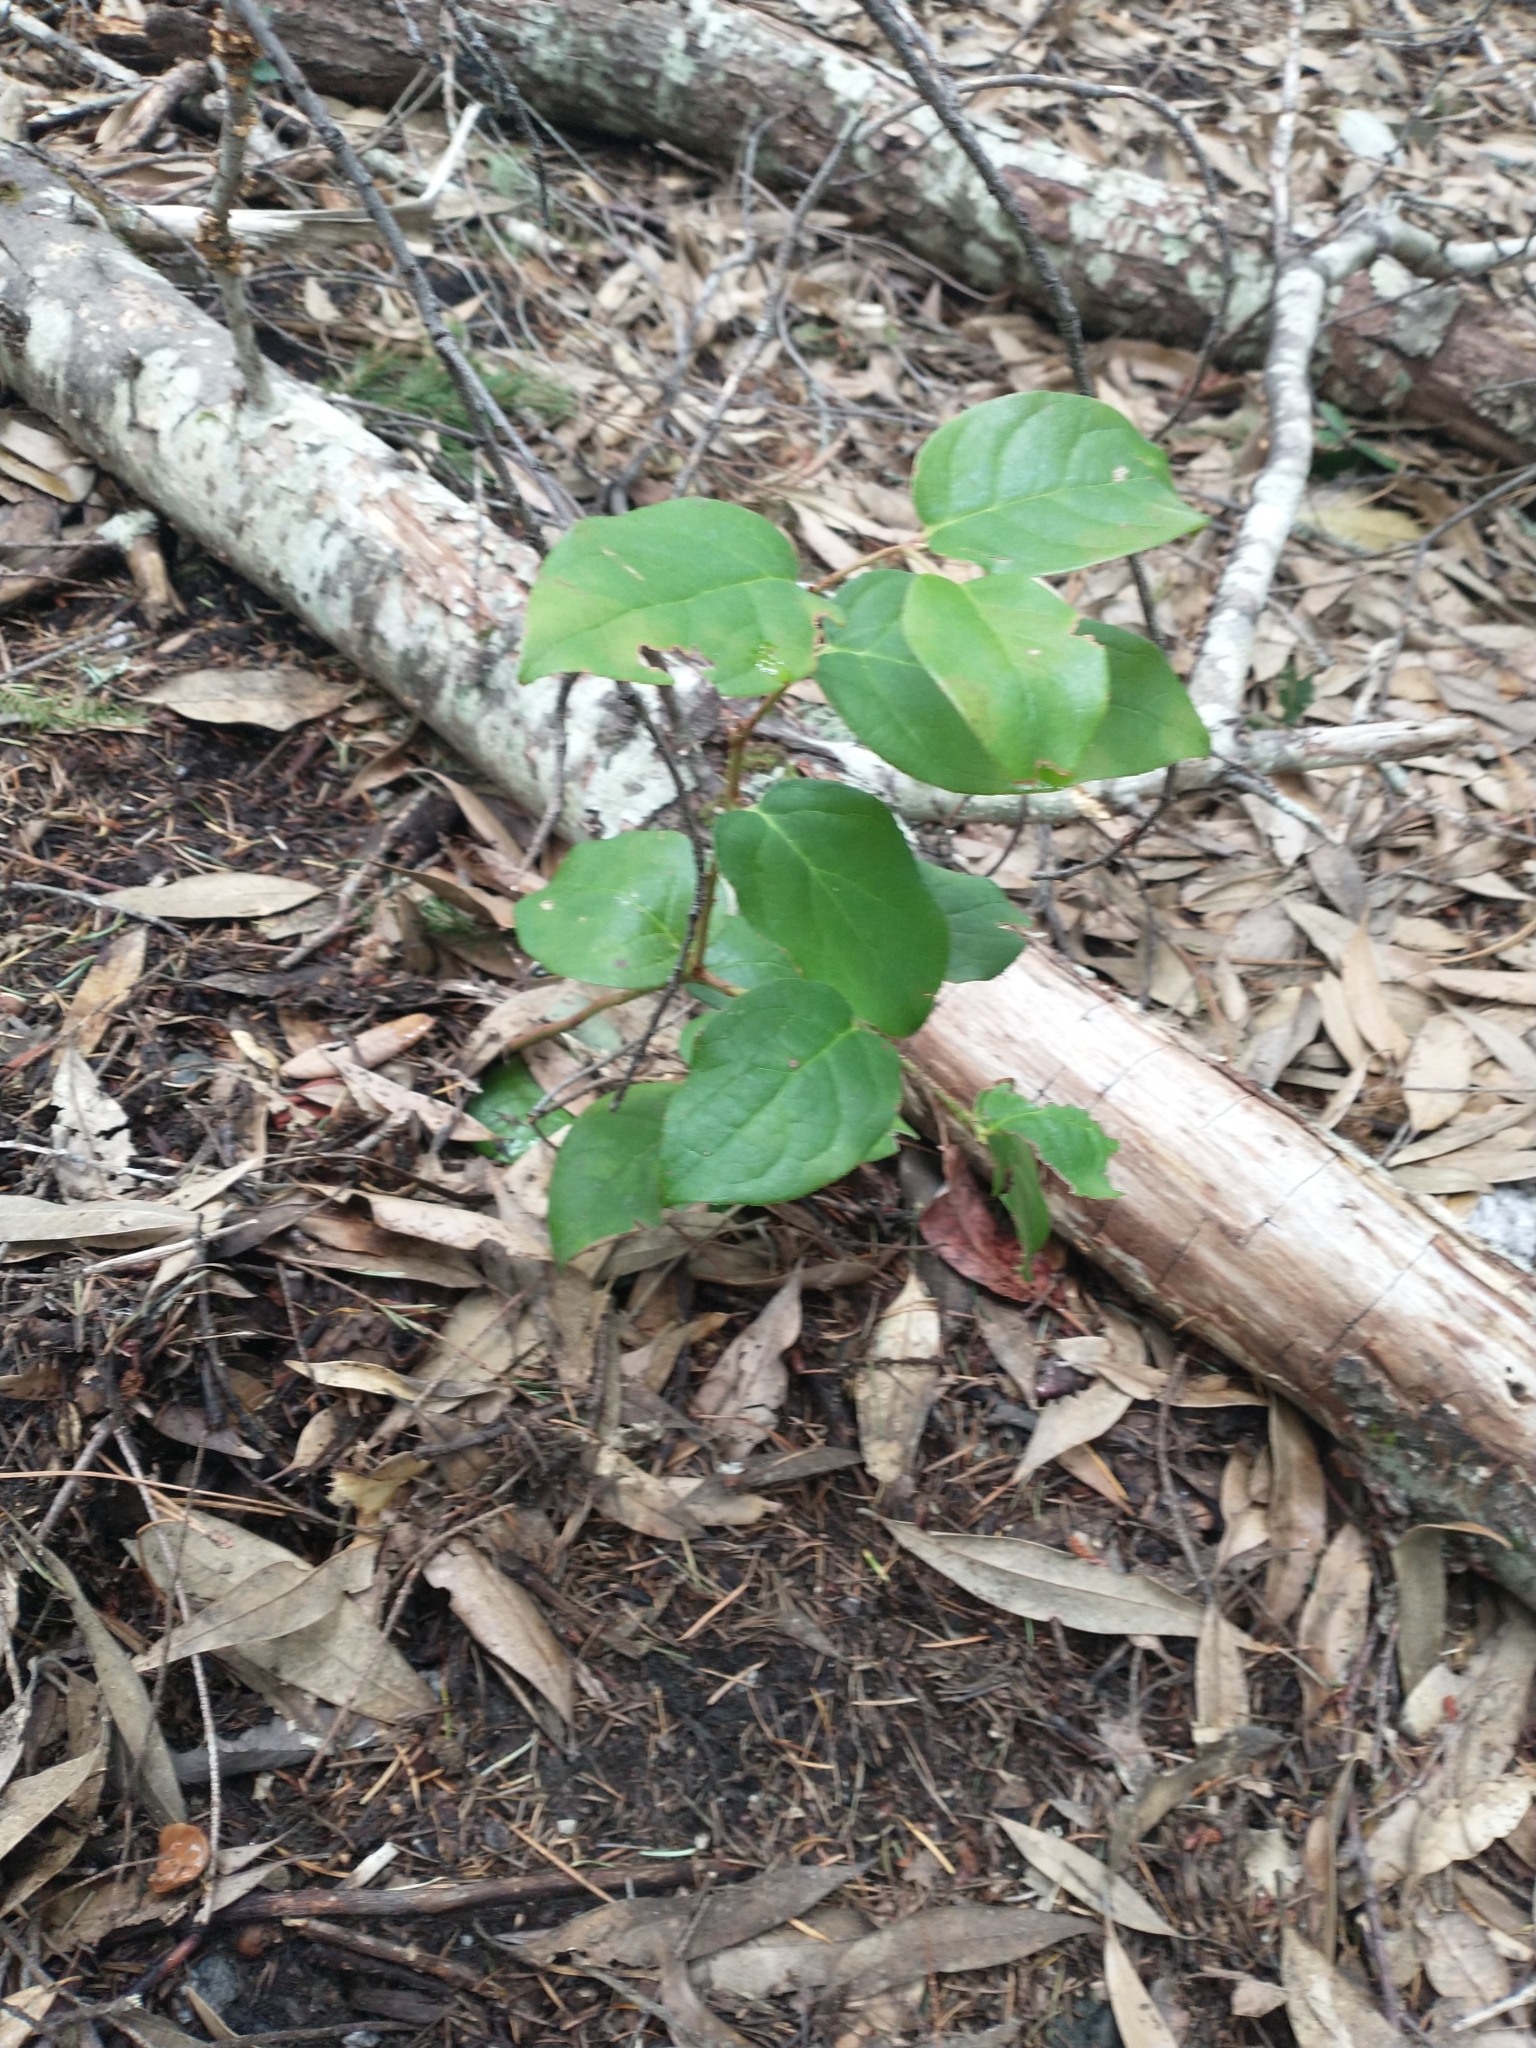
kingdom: Plantae
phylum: Tracheophyta
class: Magnoliopsida
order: Ericales
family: Ericaceae
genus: Gaultheria
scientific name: Gaultheria shallon
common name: Shallon
